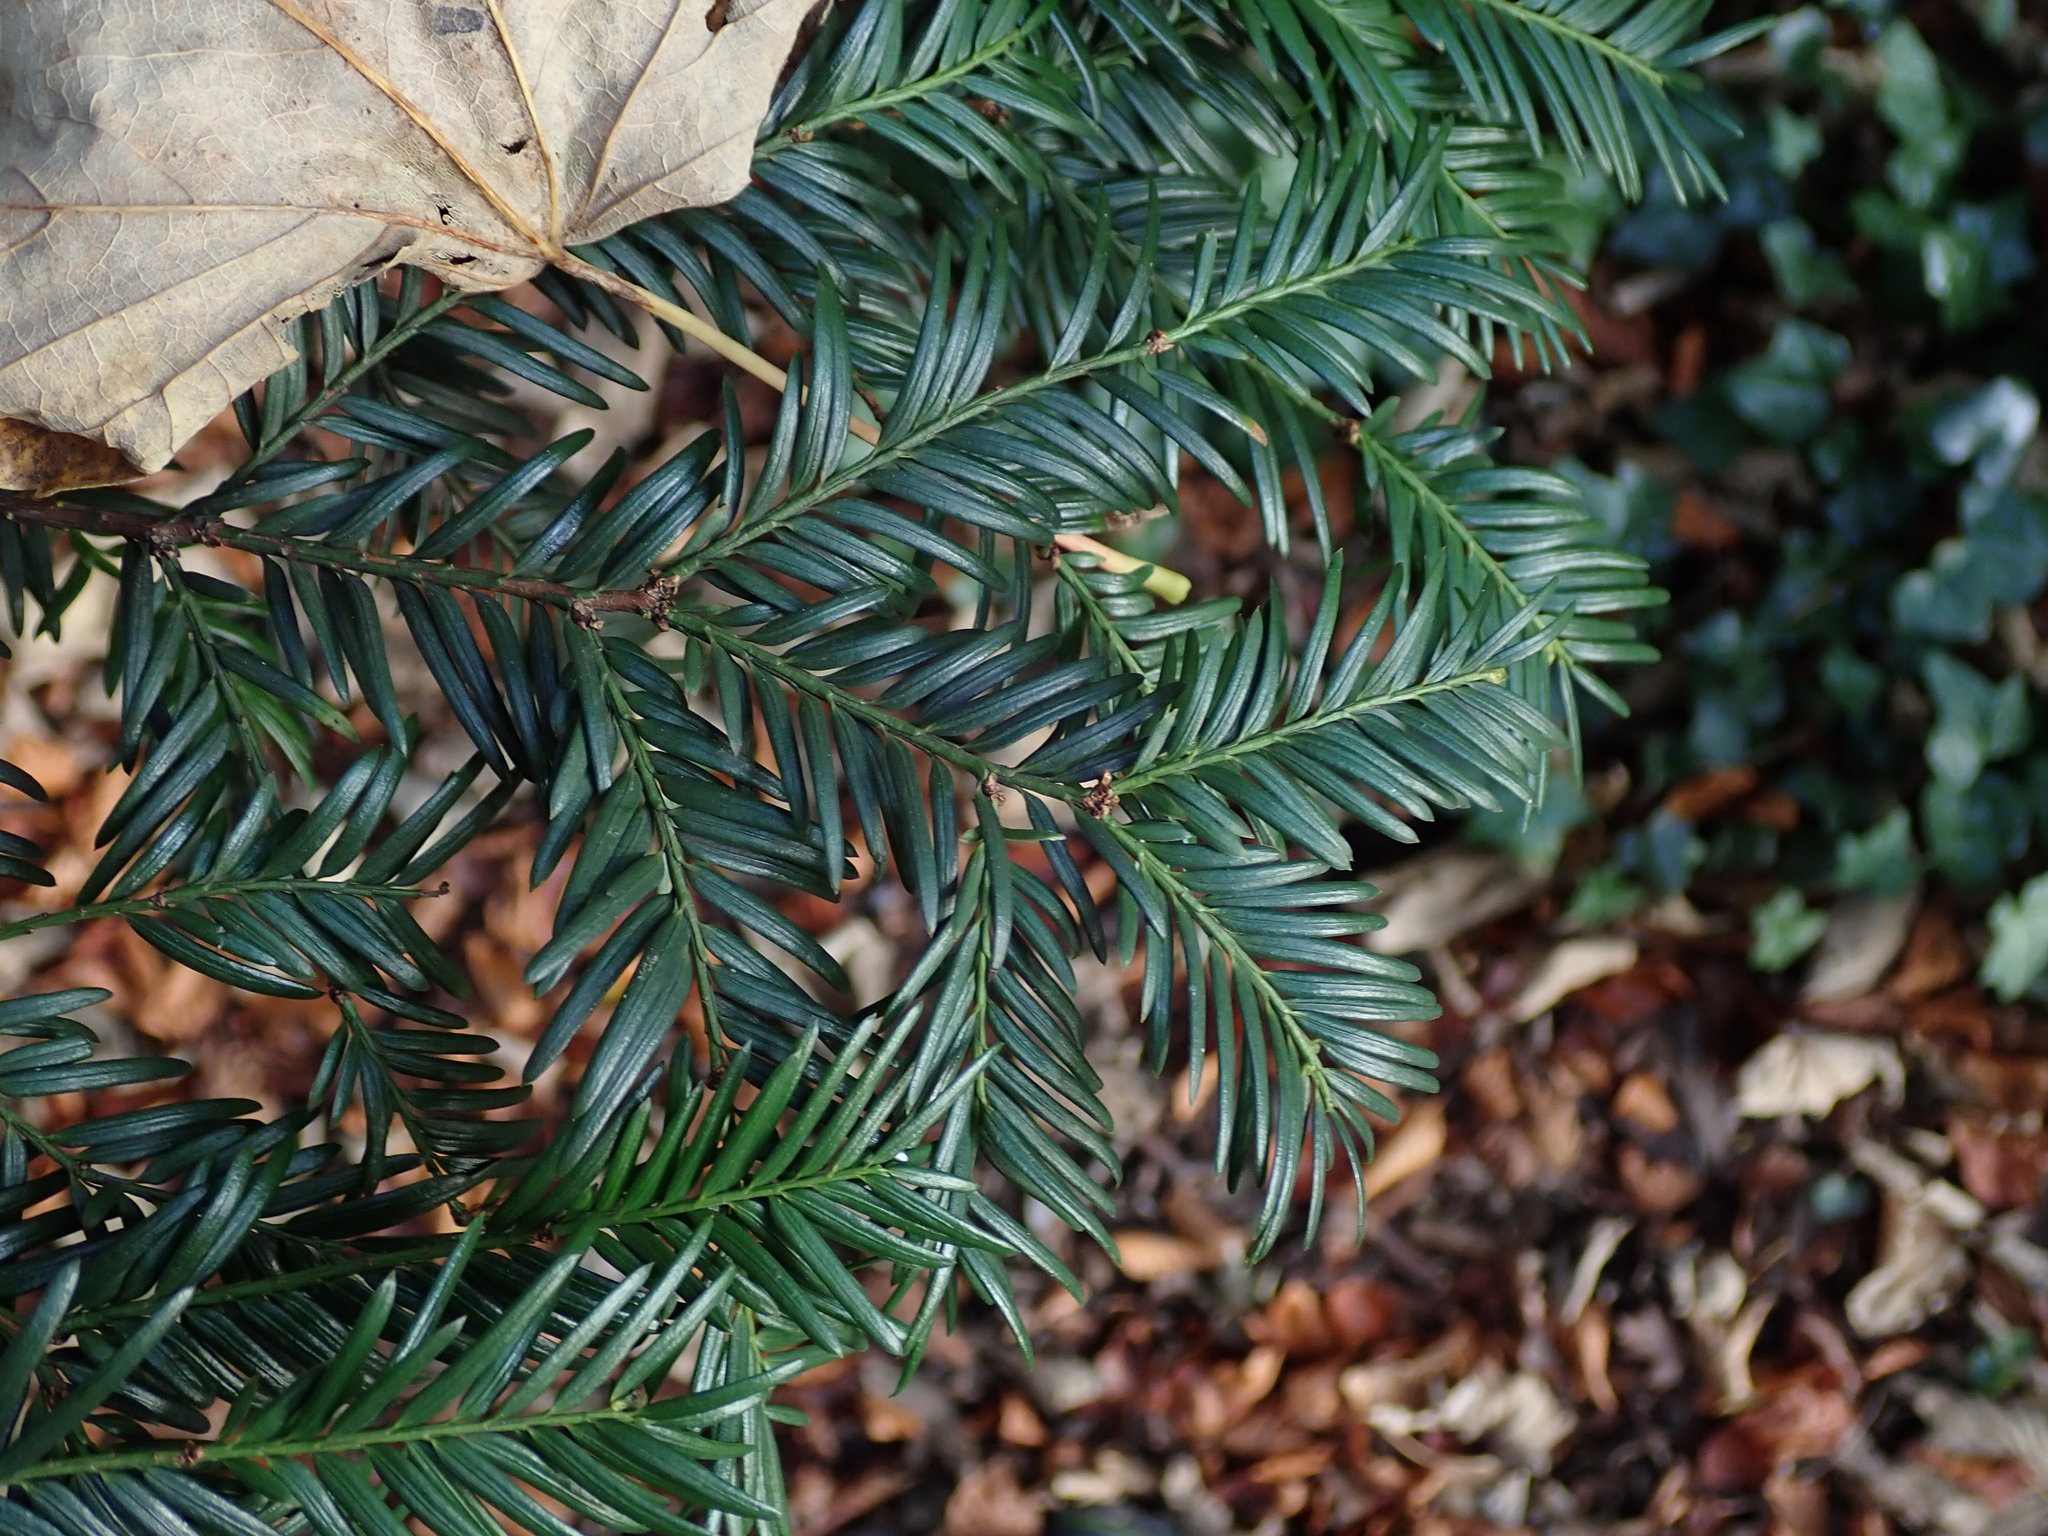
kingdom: Plantae
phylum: Tracheophyta
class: Pinopsida
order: Pinales
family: Taxaceae
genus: Taxus
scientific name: Taxus baccata
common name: Yew
